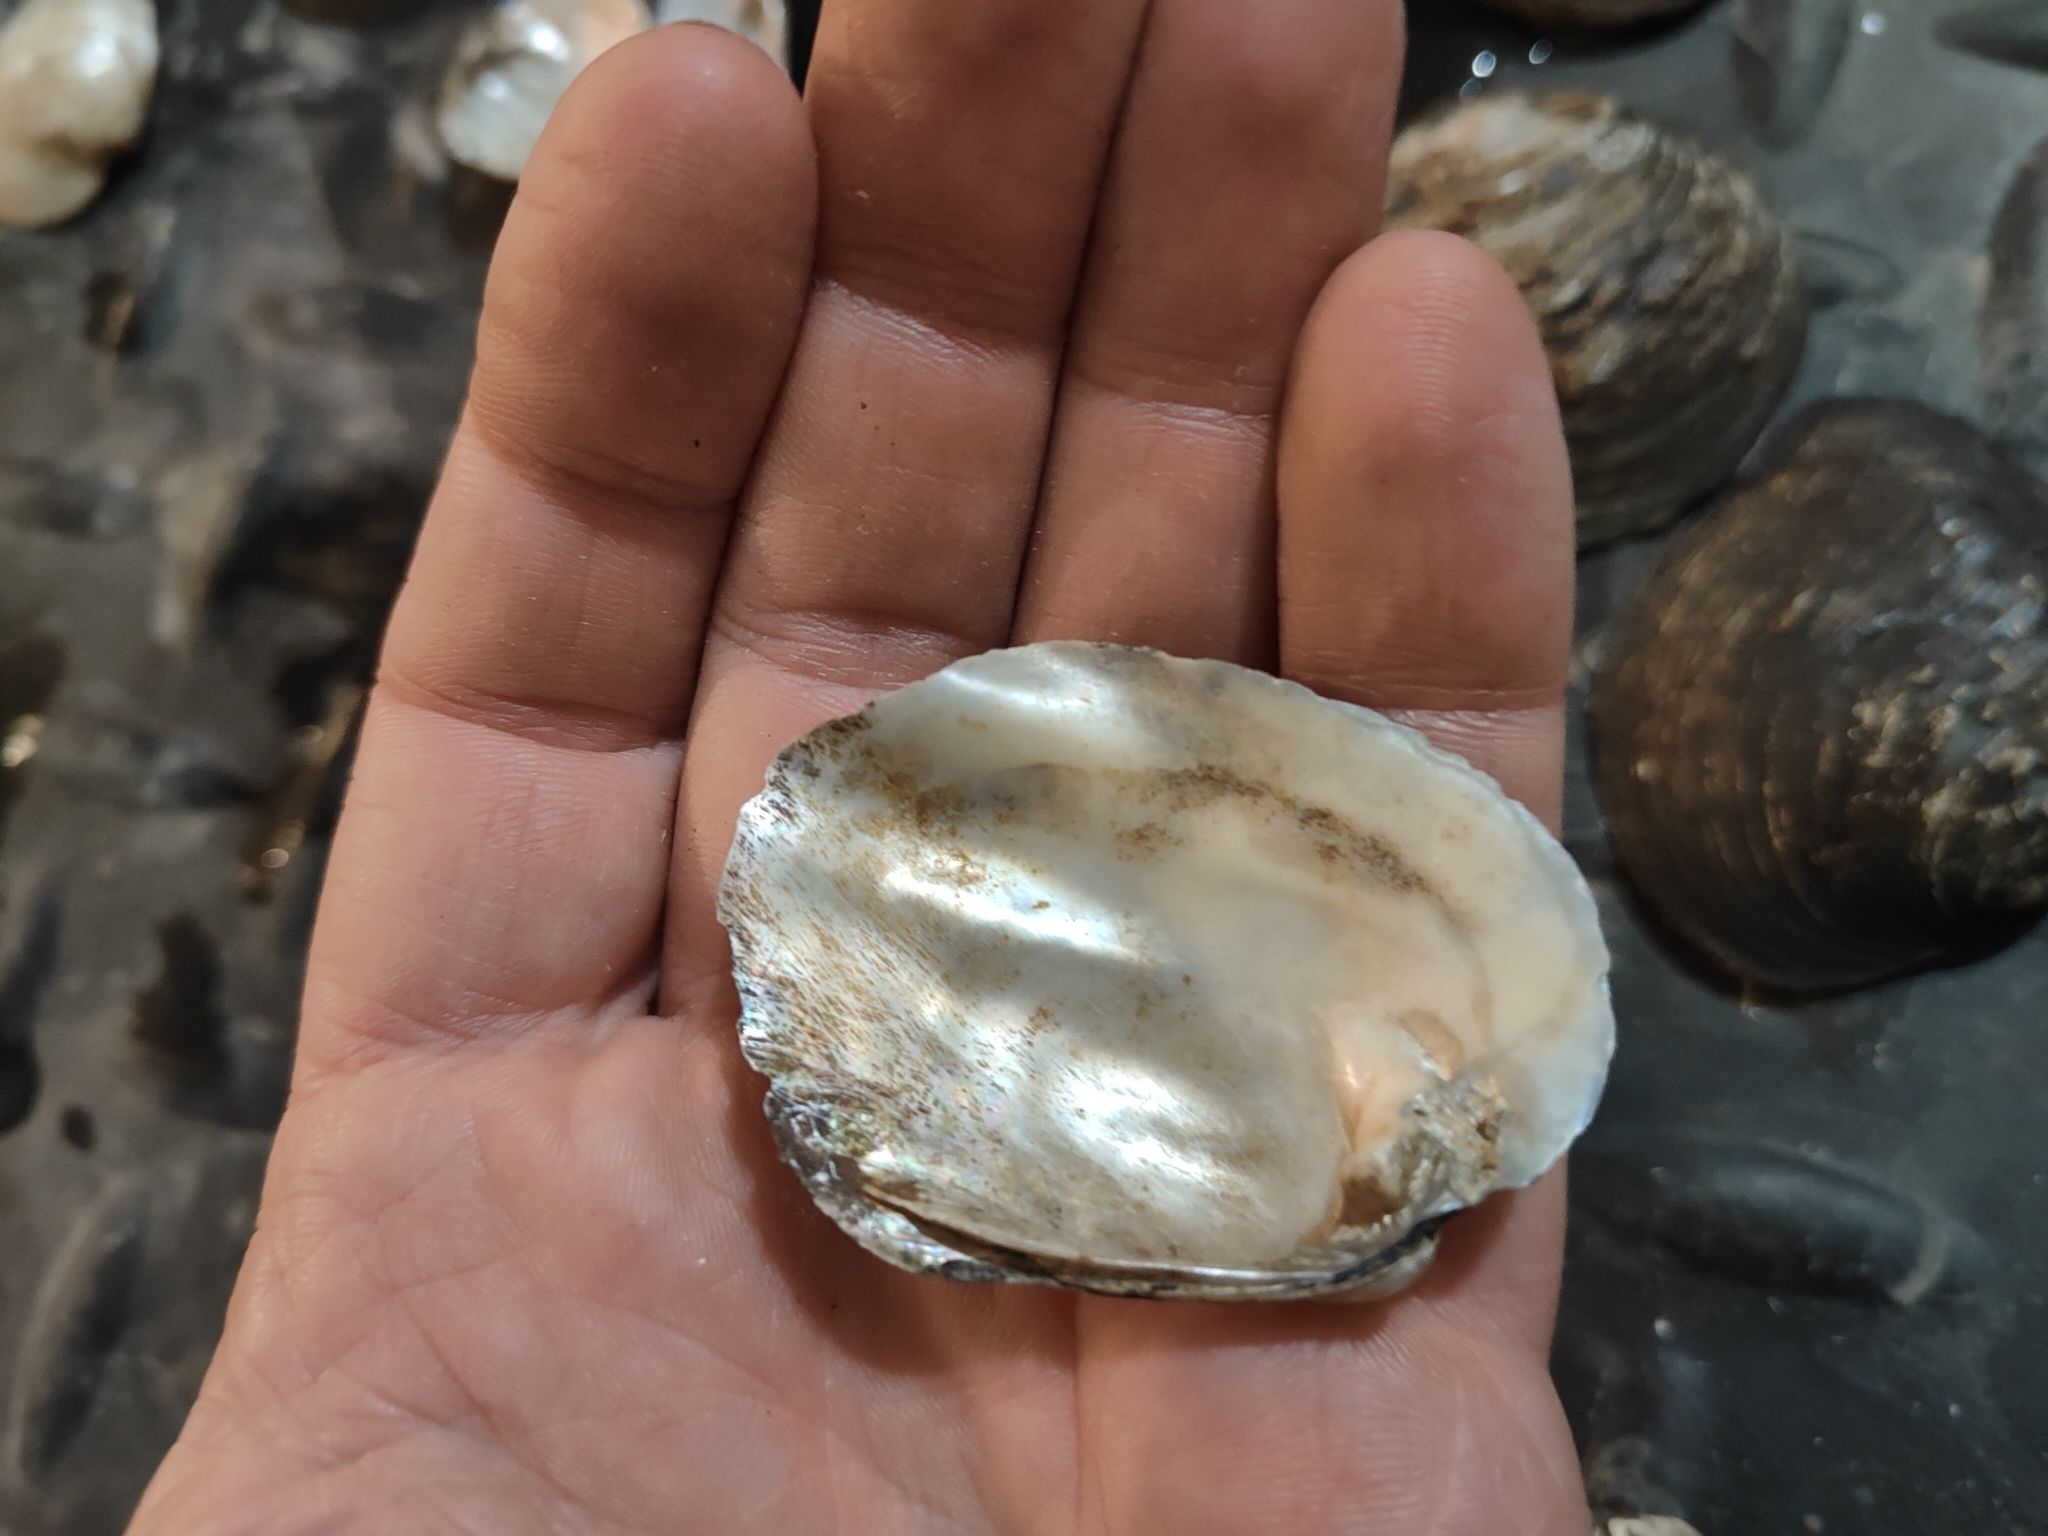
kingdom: Animalia
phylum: Mollusca
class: Bivalvia
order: Unionida
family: Unionidae
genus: Amblema
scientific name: Amblema plicata
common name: Threeridge
